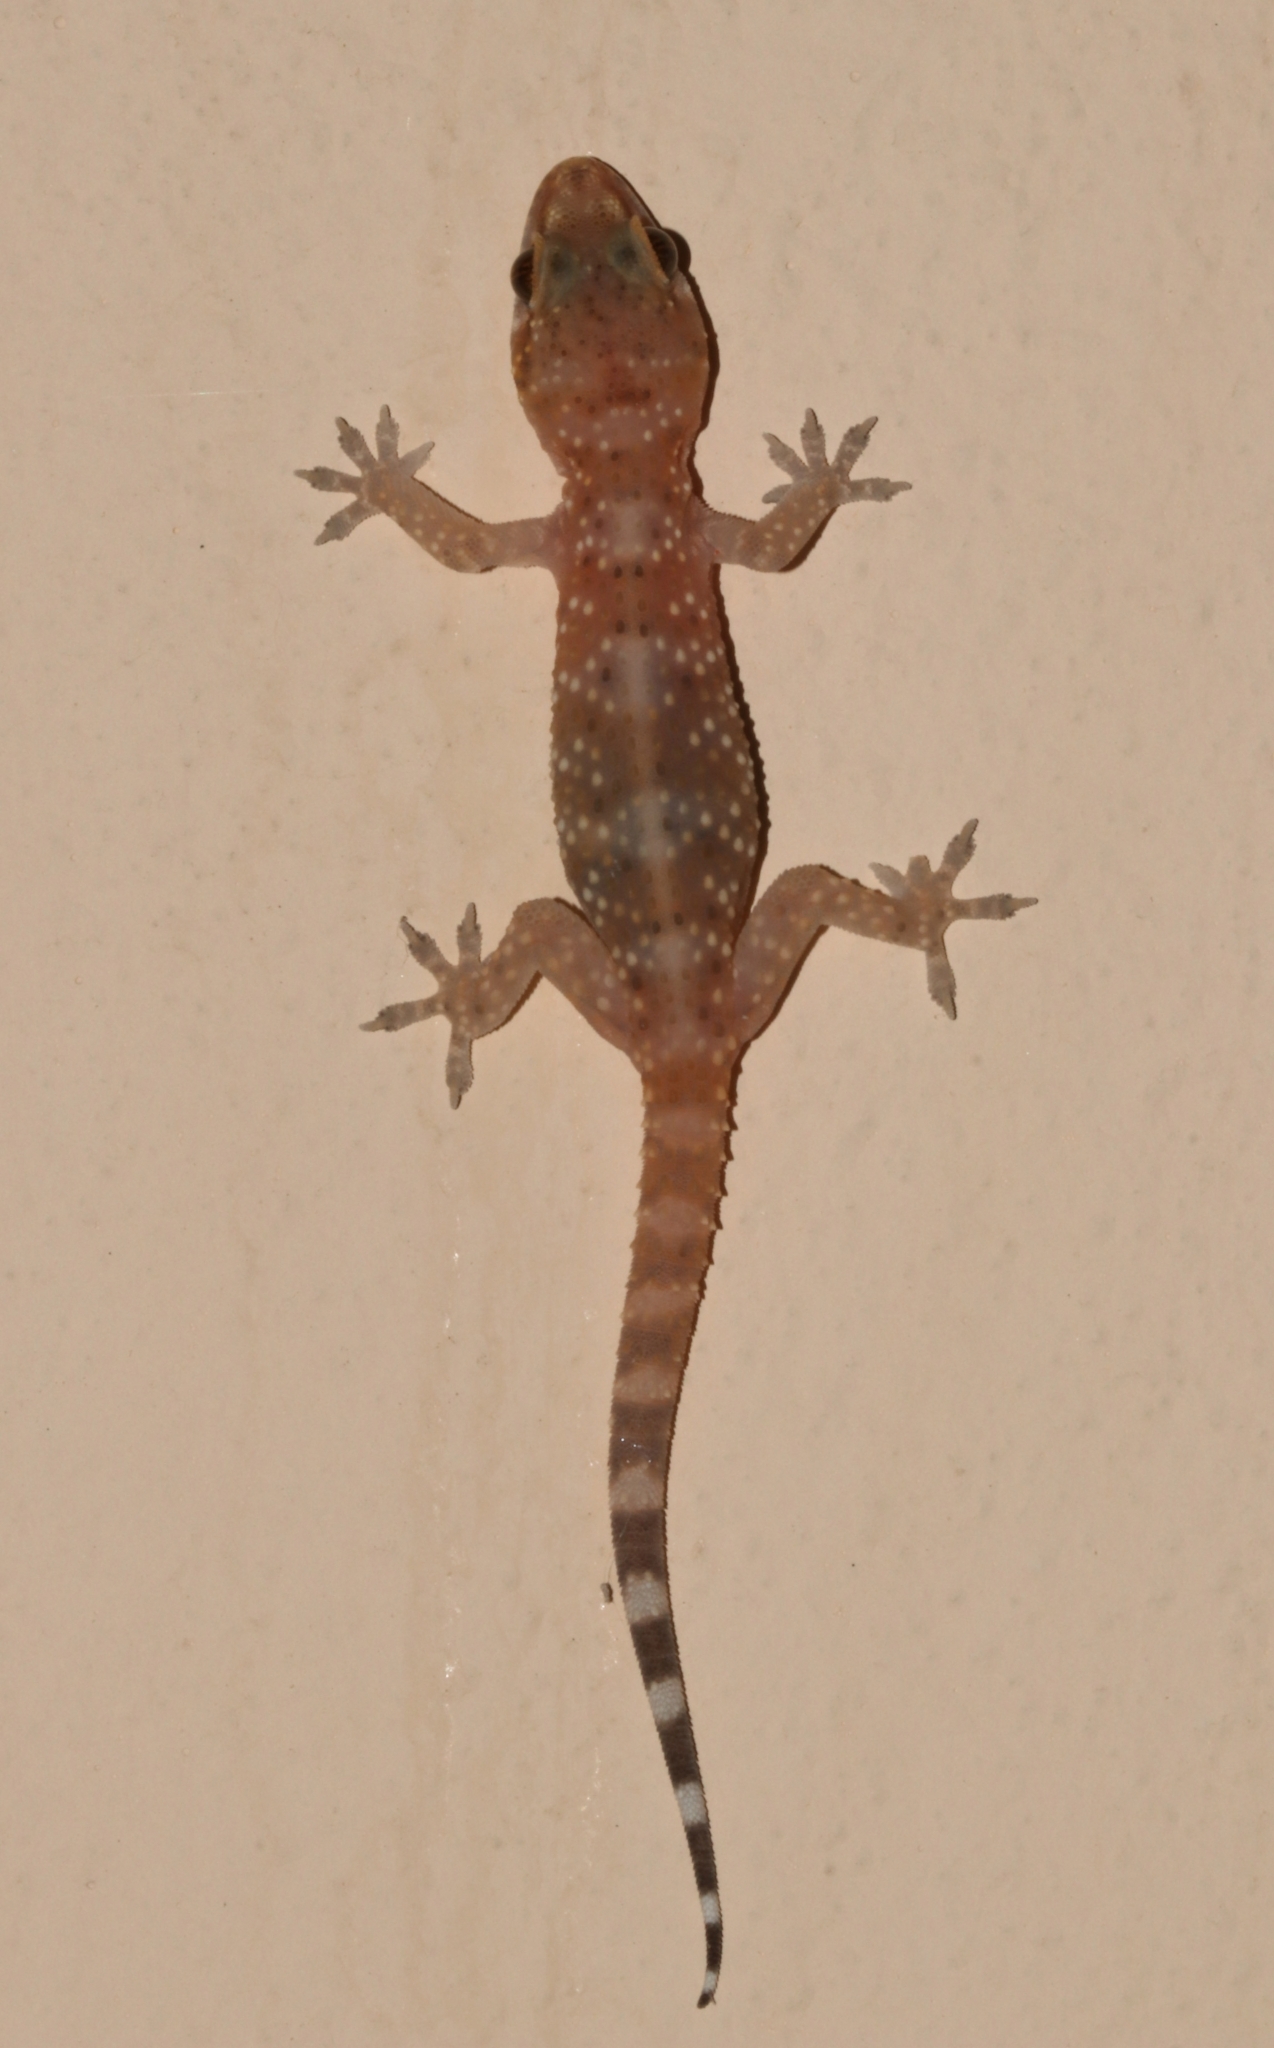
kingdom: Animalia
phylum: Chordata
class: Squamata
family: Gekkonidae
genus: Hemidactylus
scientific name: Hemidactylus turcicus
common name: Turkish gecko
